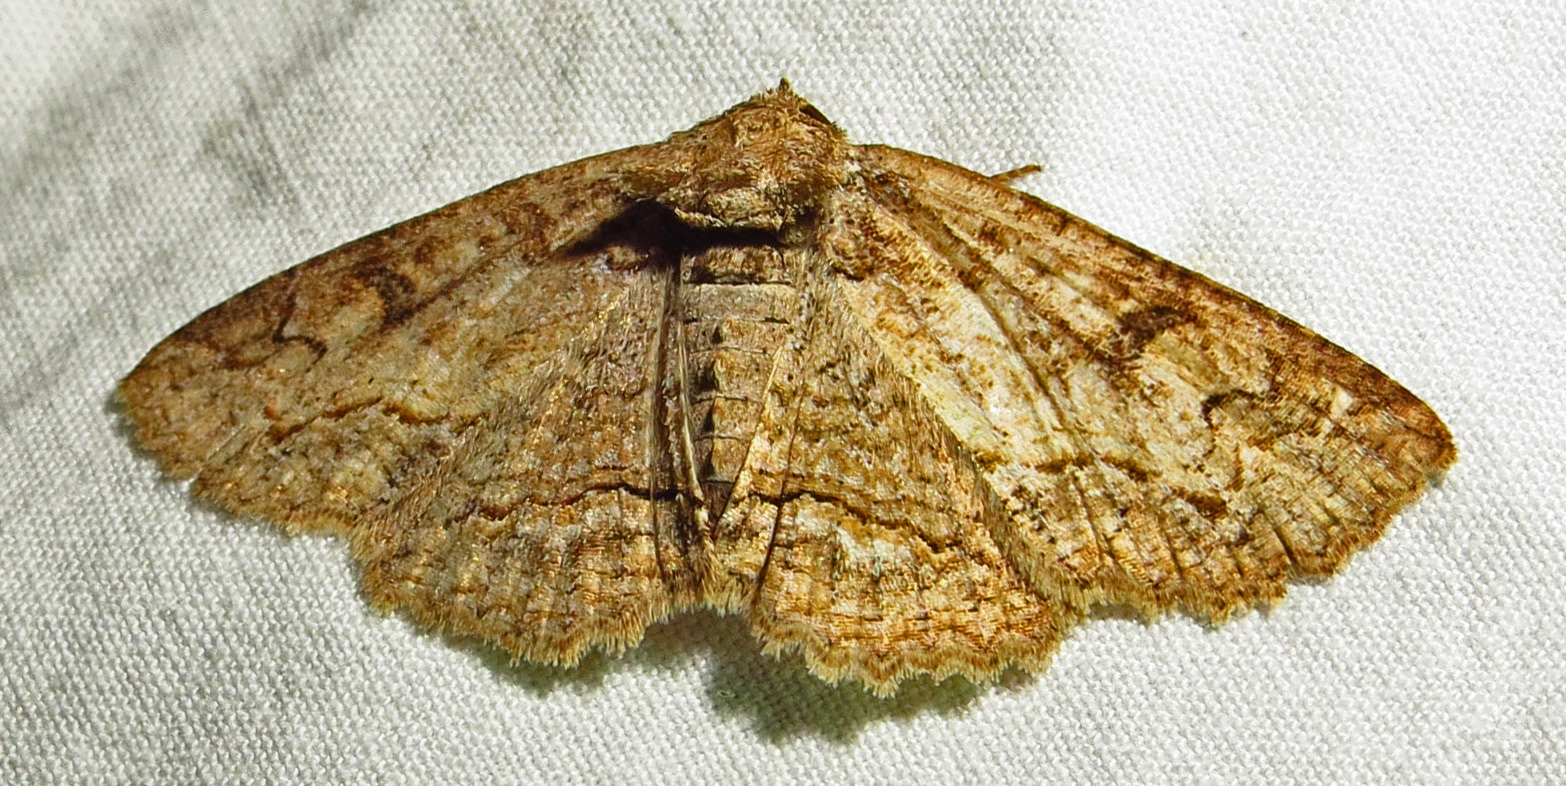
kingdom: Animalia
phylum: Arthropoda
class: Insecta
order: Lepidoptera
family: Erebidae
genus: Zale
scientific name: Zale galbanata
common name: Maple zale
